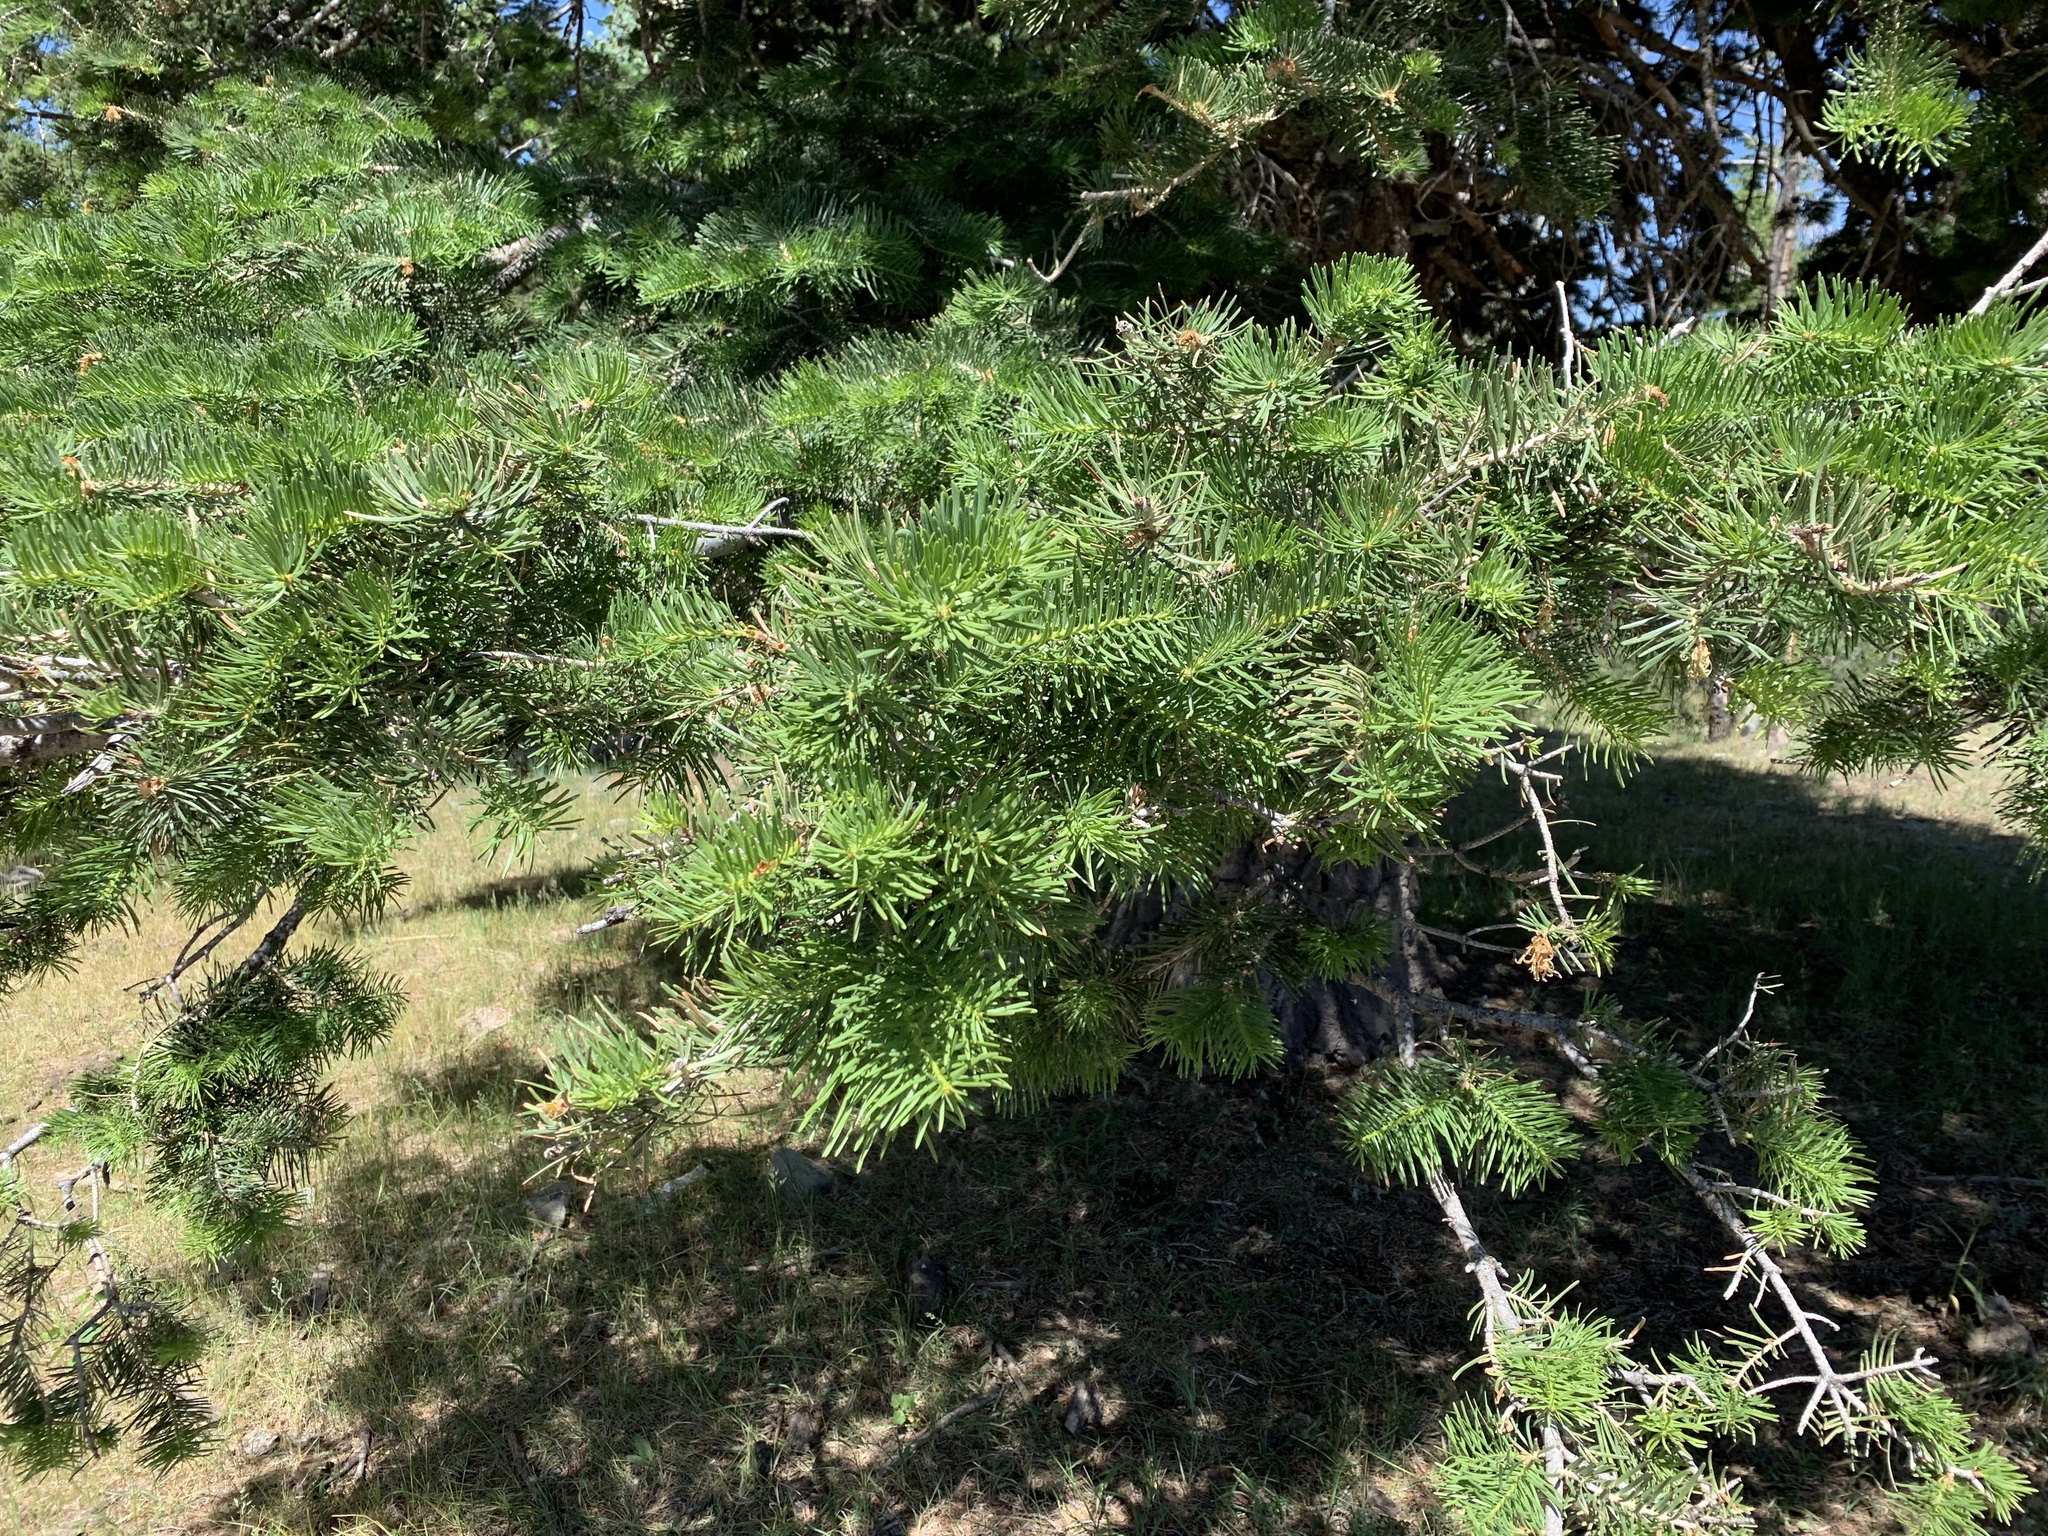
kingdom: Plantae
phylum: Tracheophyta
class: Pinopsida
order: Pinales
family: Pinaceae
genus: Abies
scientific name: Abies concolor
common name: Colorado fir
